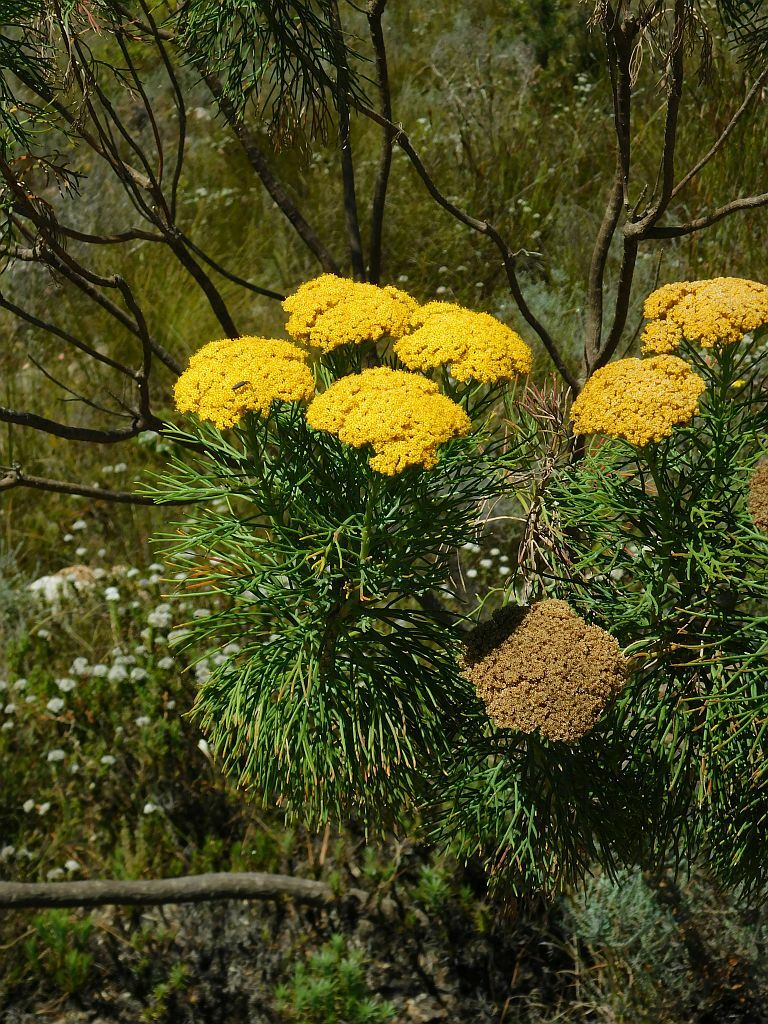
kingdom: Plantae
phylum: Tracheophyta
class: Magnoliopsida
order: Asterales
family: Asteraceae
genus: Hymenolepis
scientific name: Hymenolepis crithmifolia
